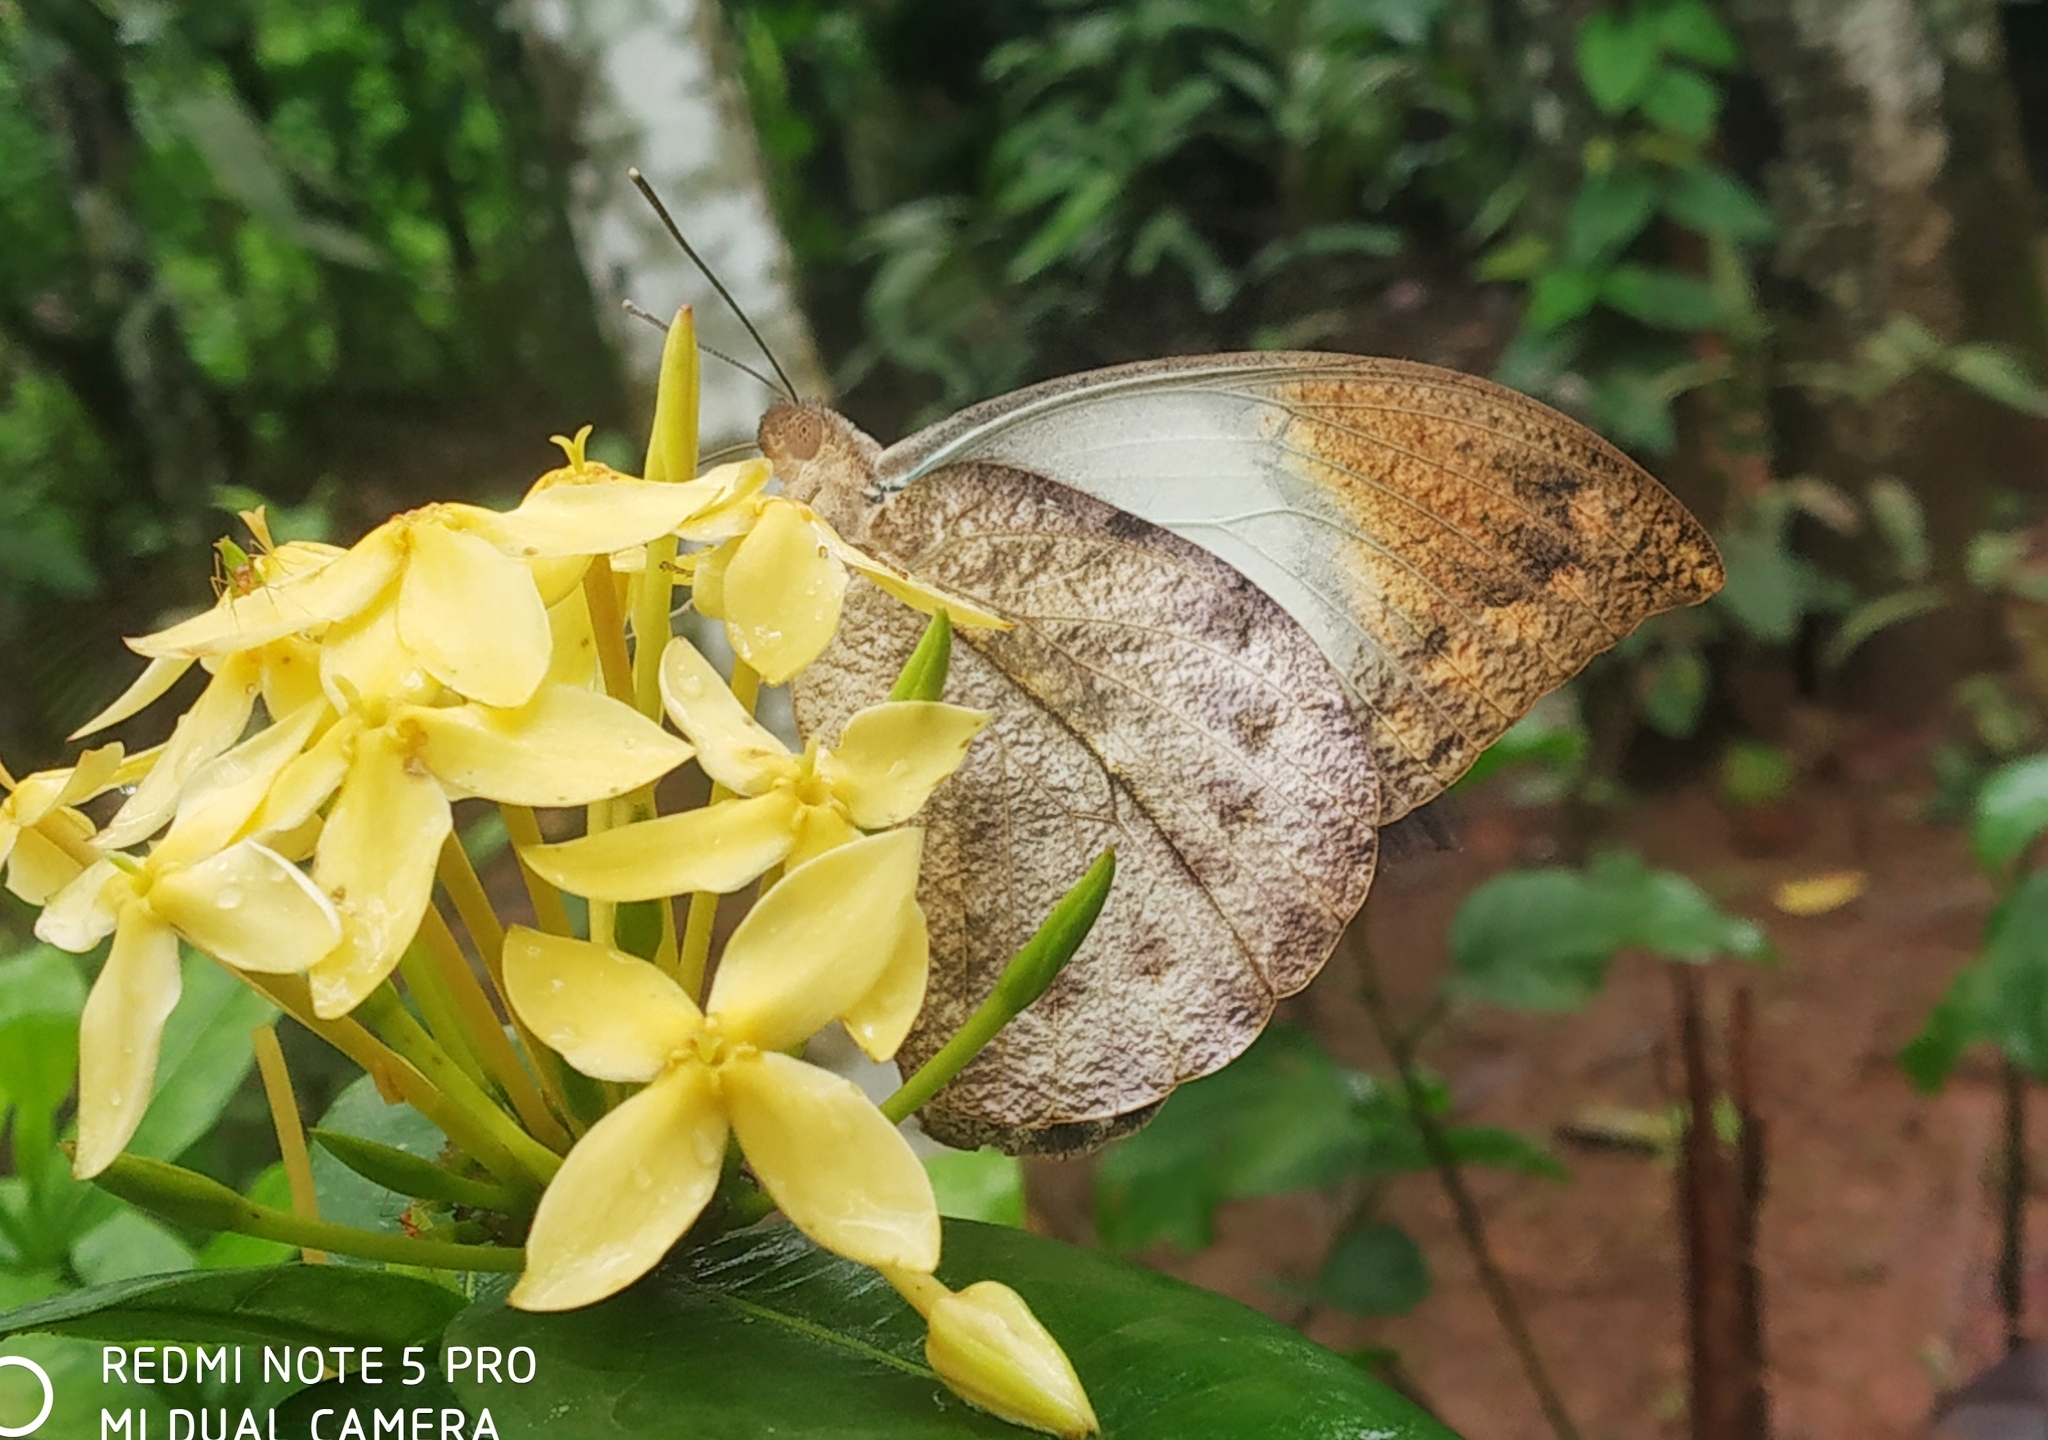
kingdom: Animalia
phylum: Arthropoda
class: Insecta
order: Lepidoptera
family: Pieridae
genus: Hebomoia
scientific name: Hebomoia glaucippe
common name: Great orange tip
